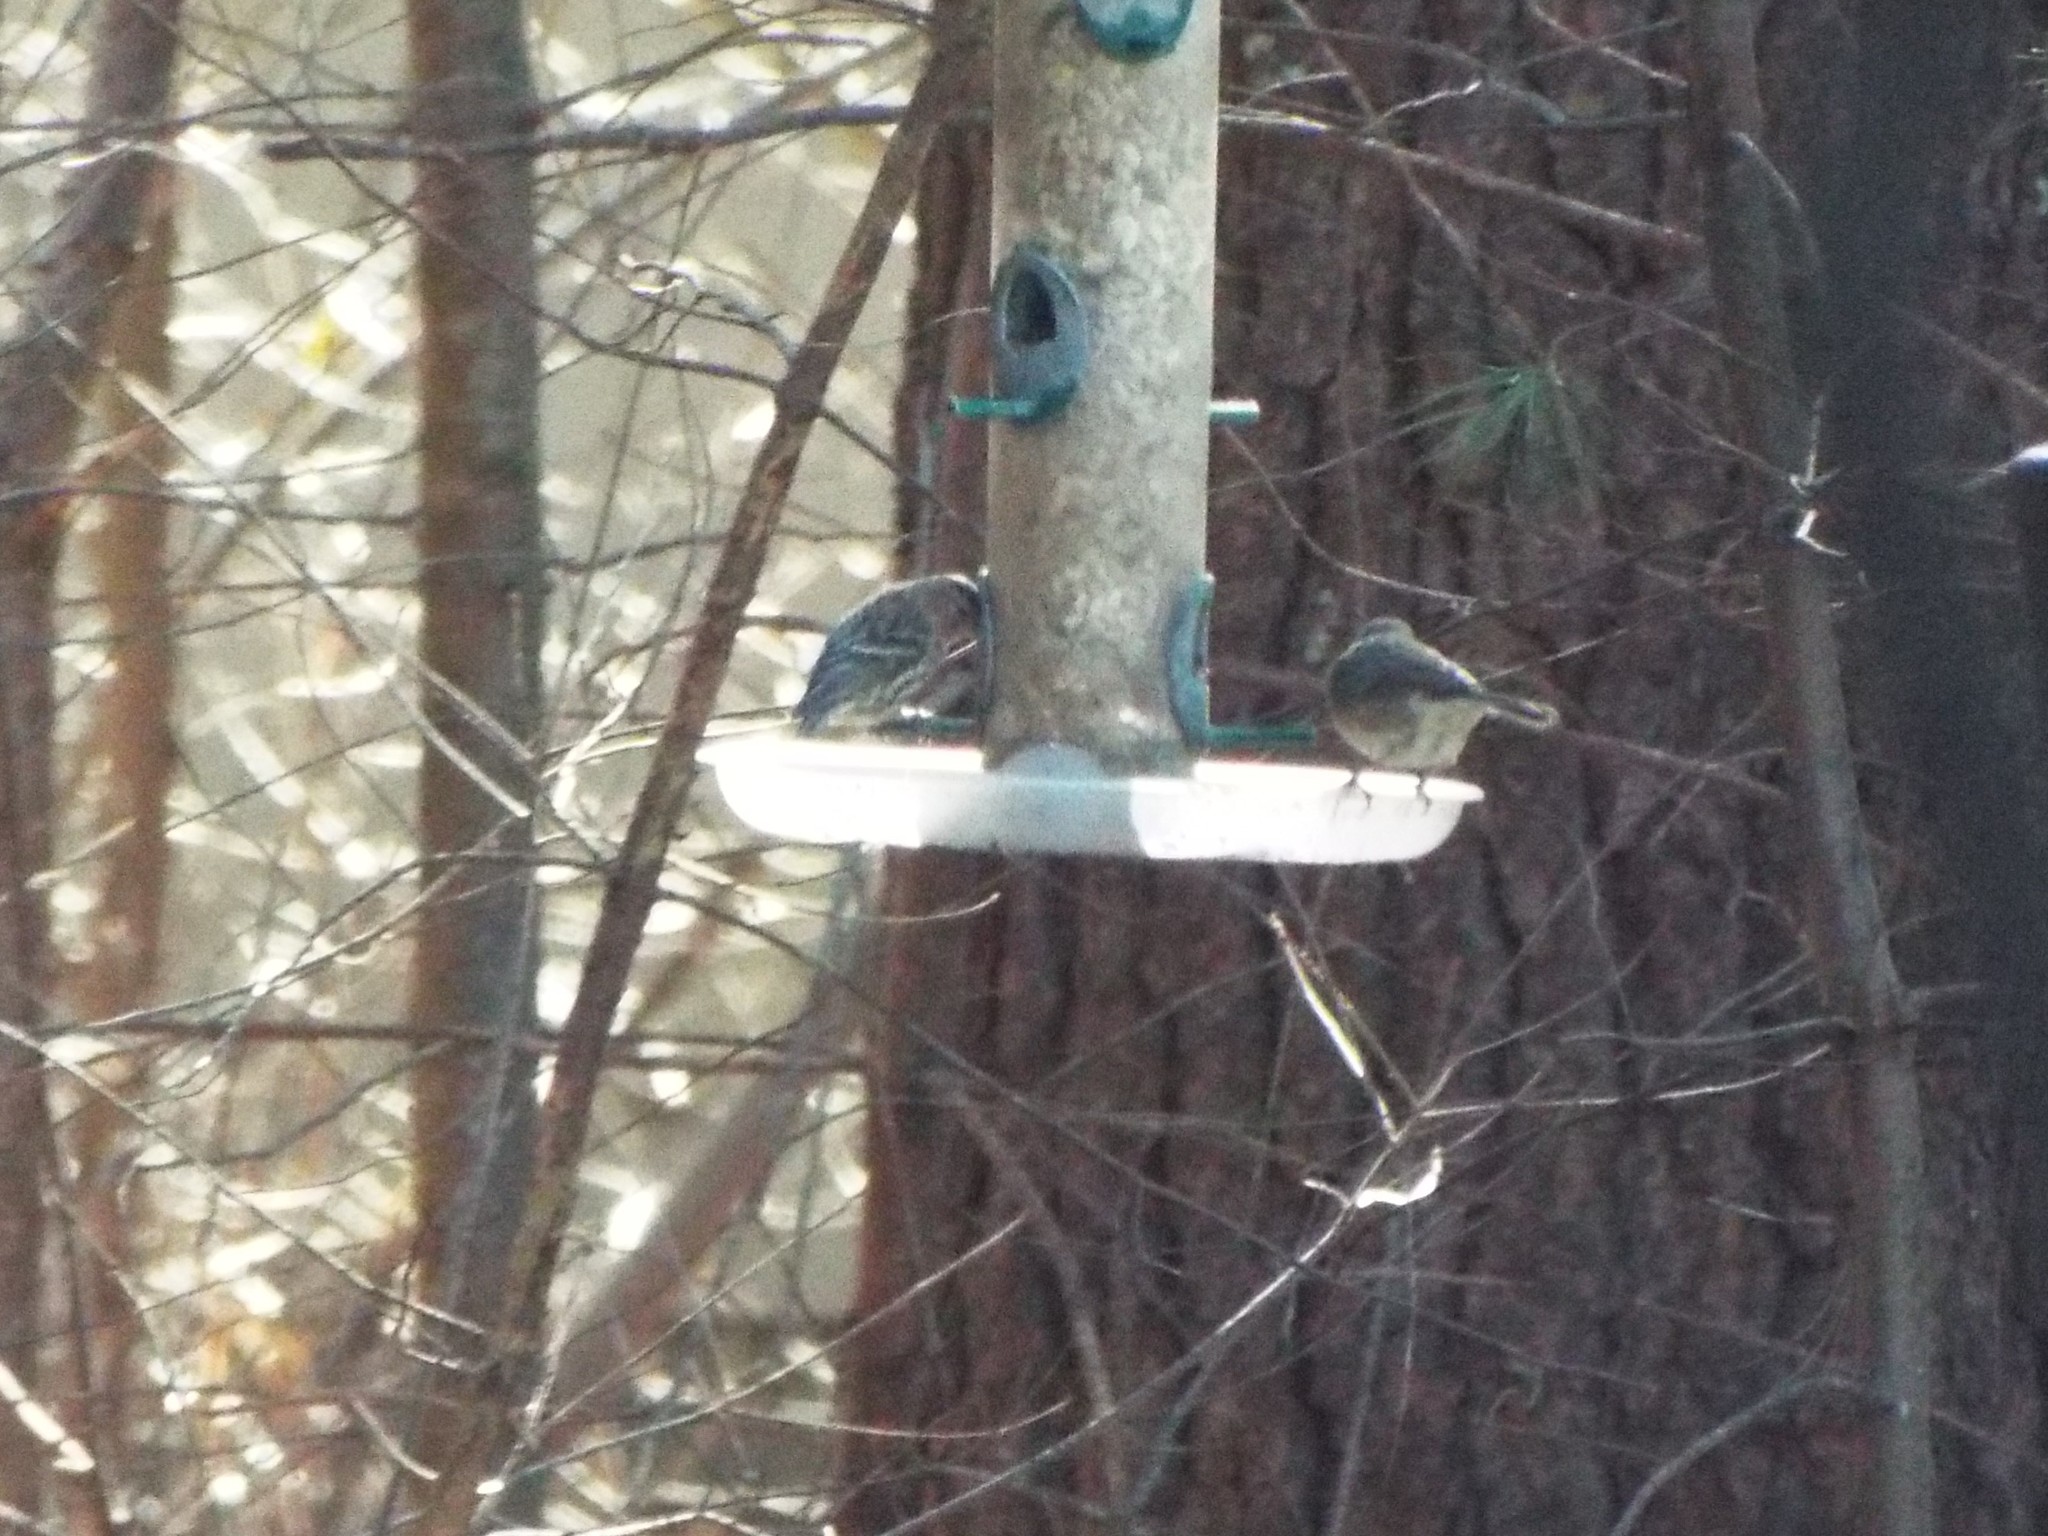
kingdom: Animalia
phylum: Chordata
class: Aves
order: Passeriformes
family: Fringillidae
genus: Spinus
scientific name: Spinus pinus
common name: Pine siskin
